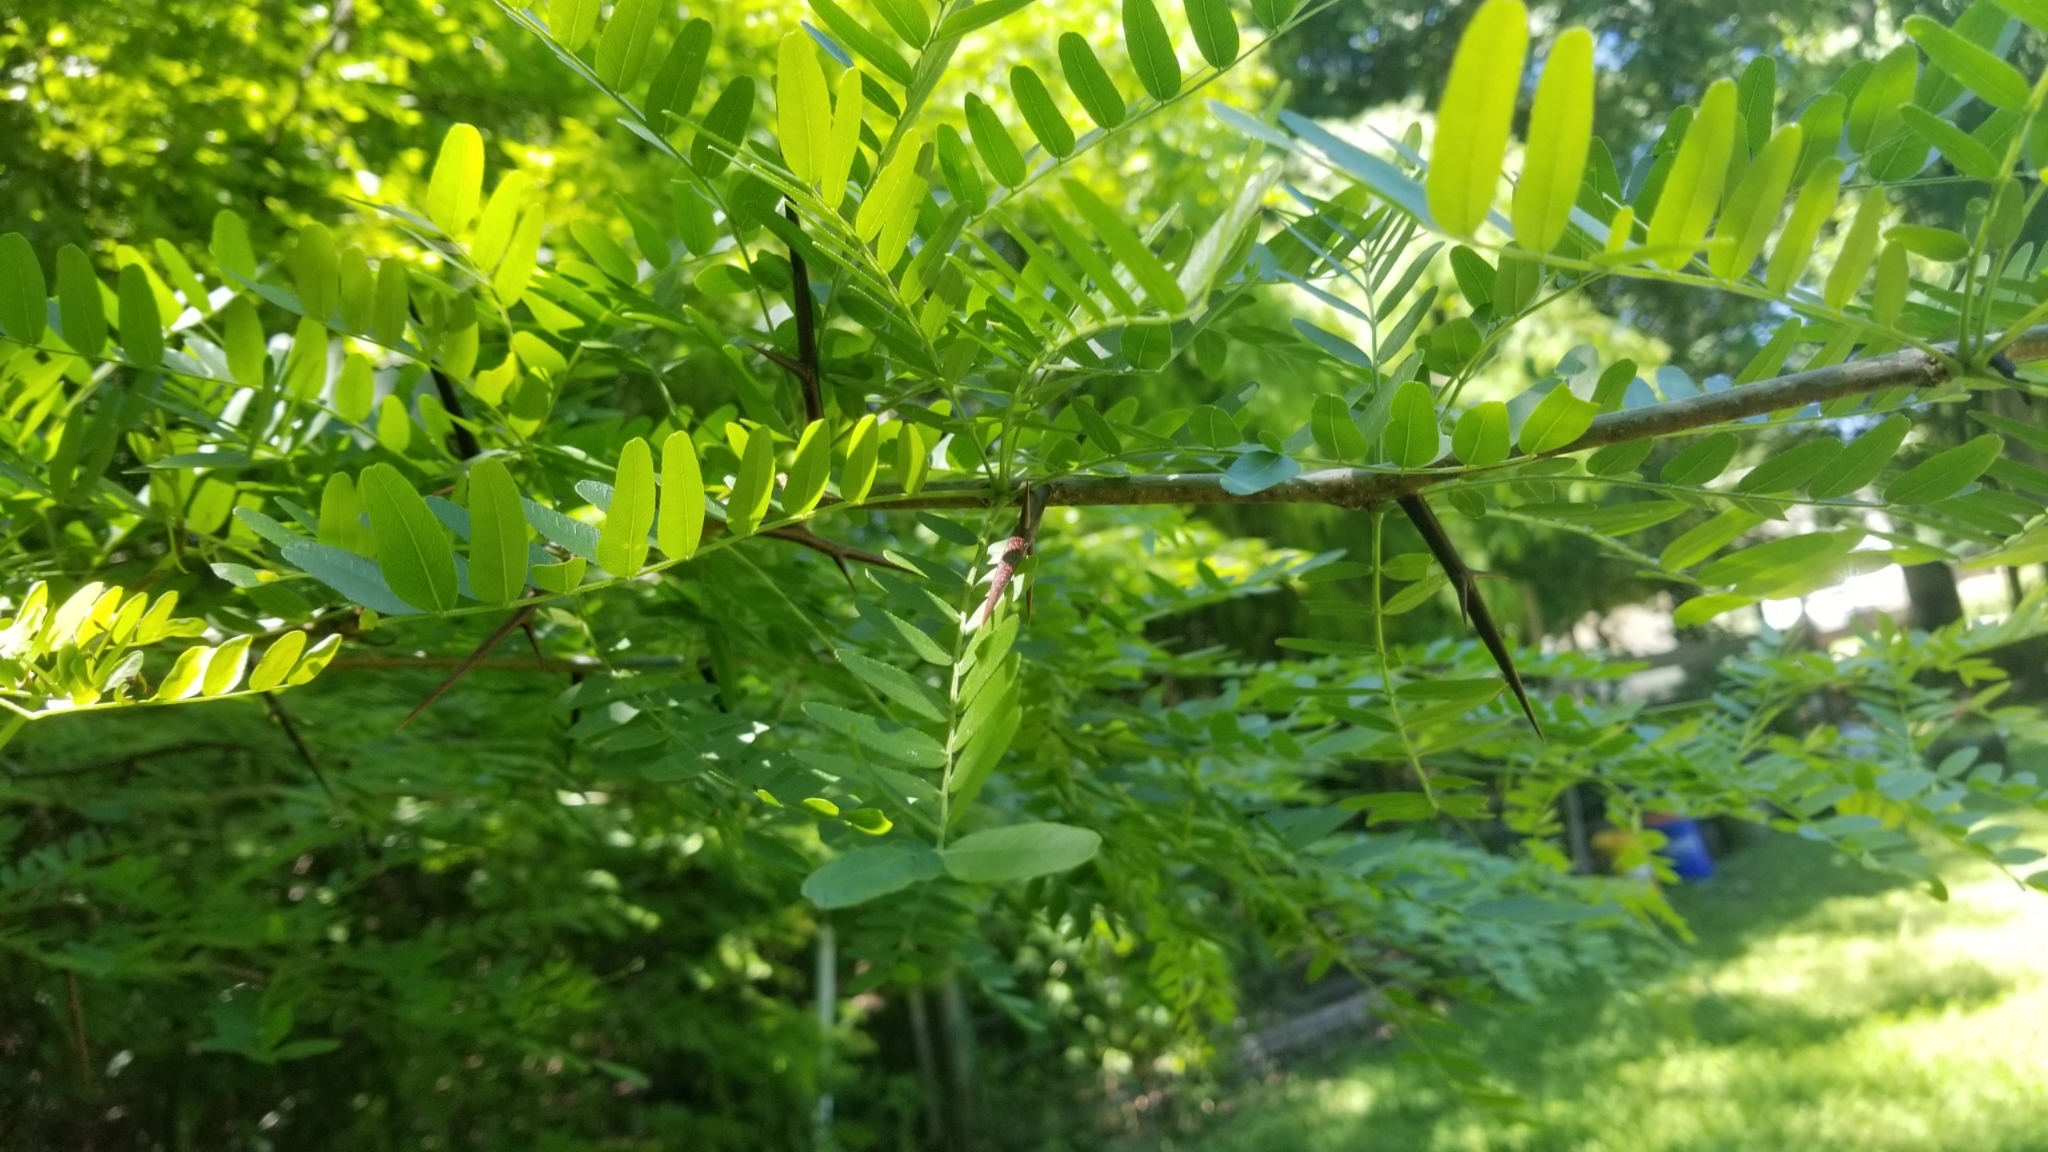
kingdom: Plantae
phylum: Tracheophyta
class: Magnoliopsida
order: Fabales
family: Fabaceae
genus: Gleditsia
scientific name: Gleditsia triacanthos
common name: Common honeylocust
